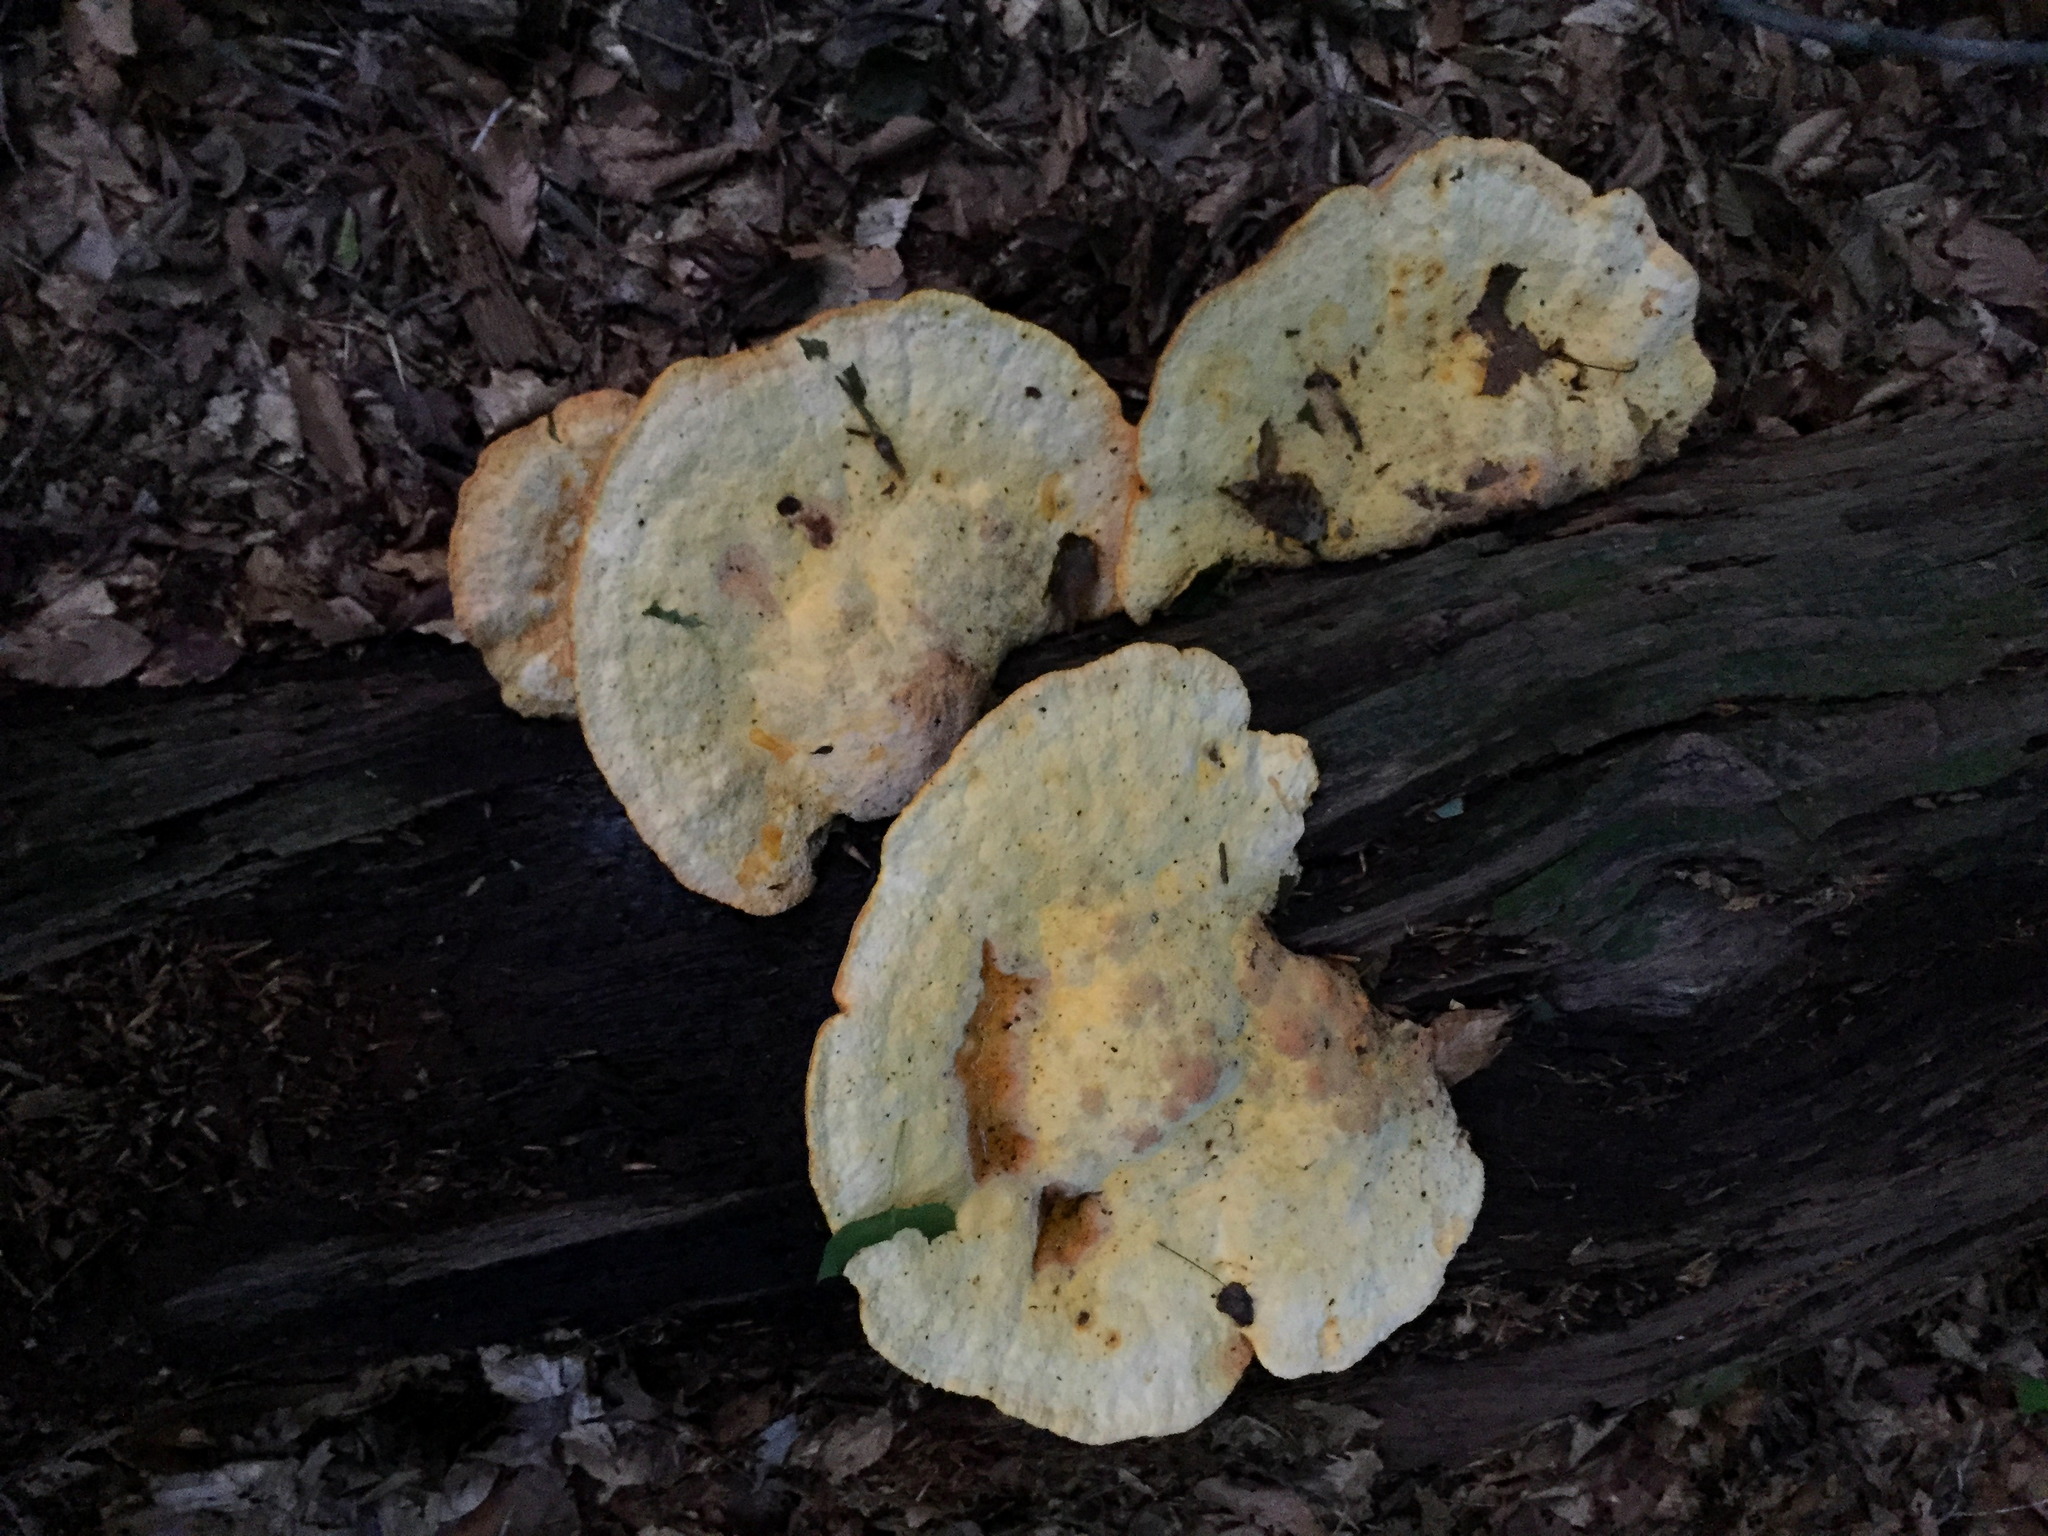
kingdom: Fungi
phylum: Basidiomycota
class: Agaricomycetes
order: Polyporales
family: Phanerochaetaceae
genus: Hapalopilus
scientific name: Hapalopilus croceus
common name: Orange polypore
